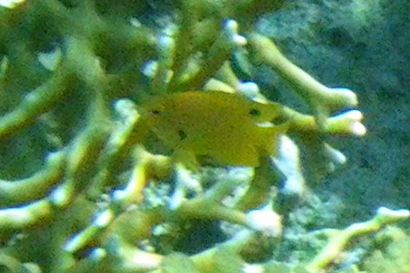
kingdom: Animalia
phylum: Chordata
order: Perciformes
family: Pomacentridae
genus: Pomacentrus
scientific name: Pomacentrus sulfureus
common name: Sulfur damsel
